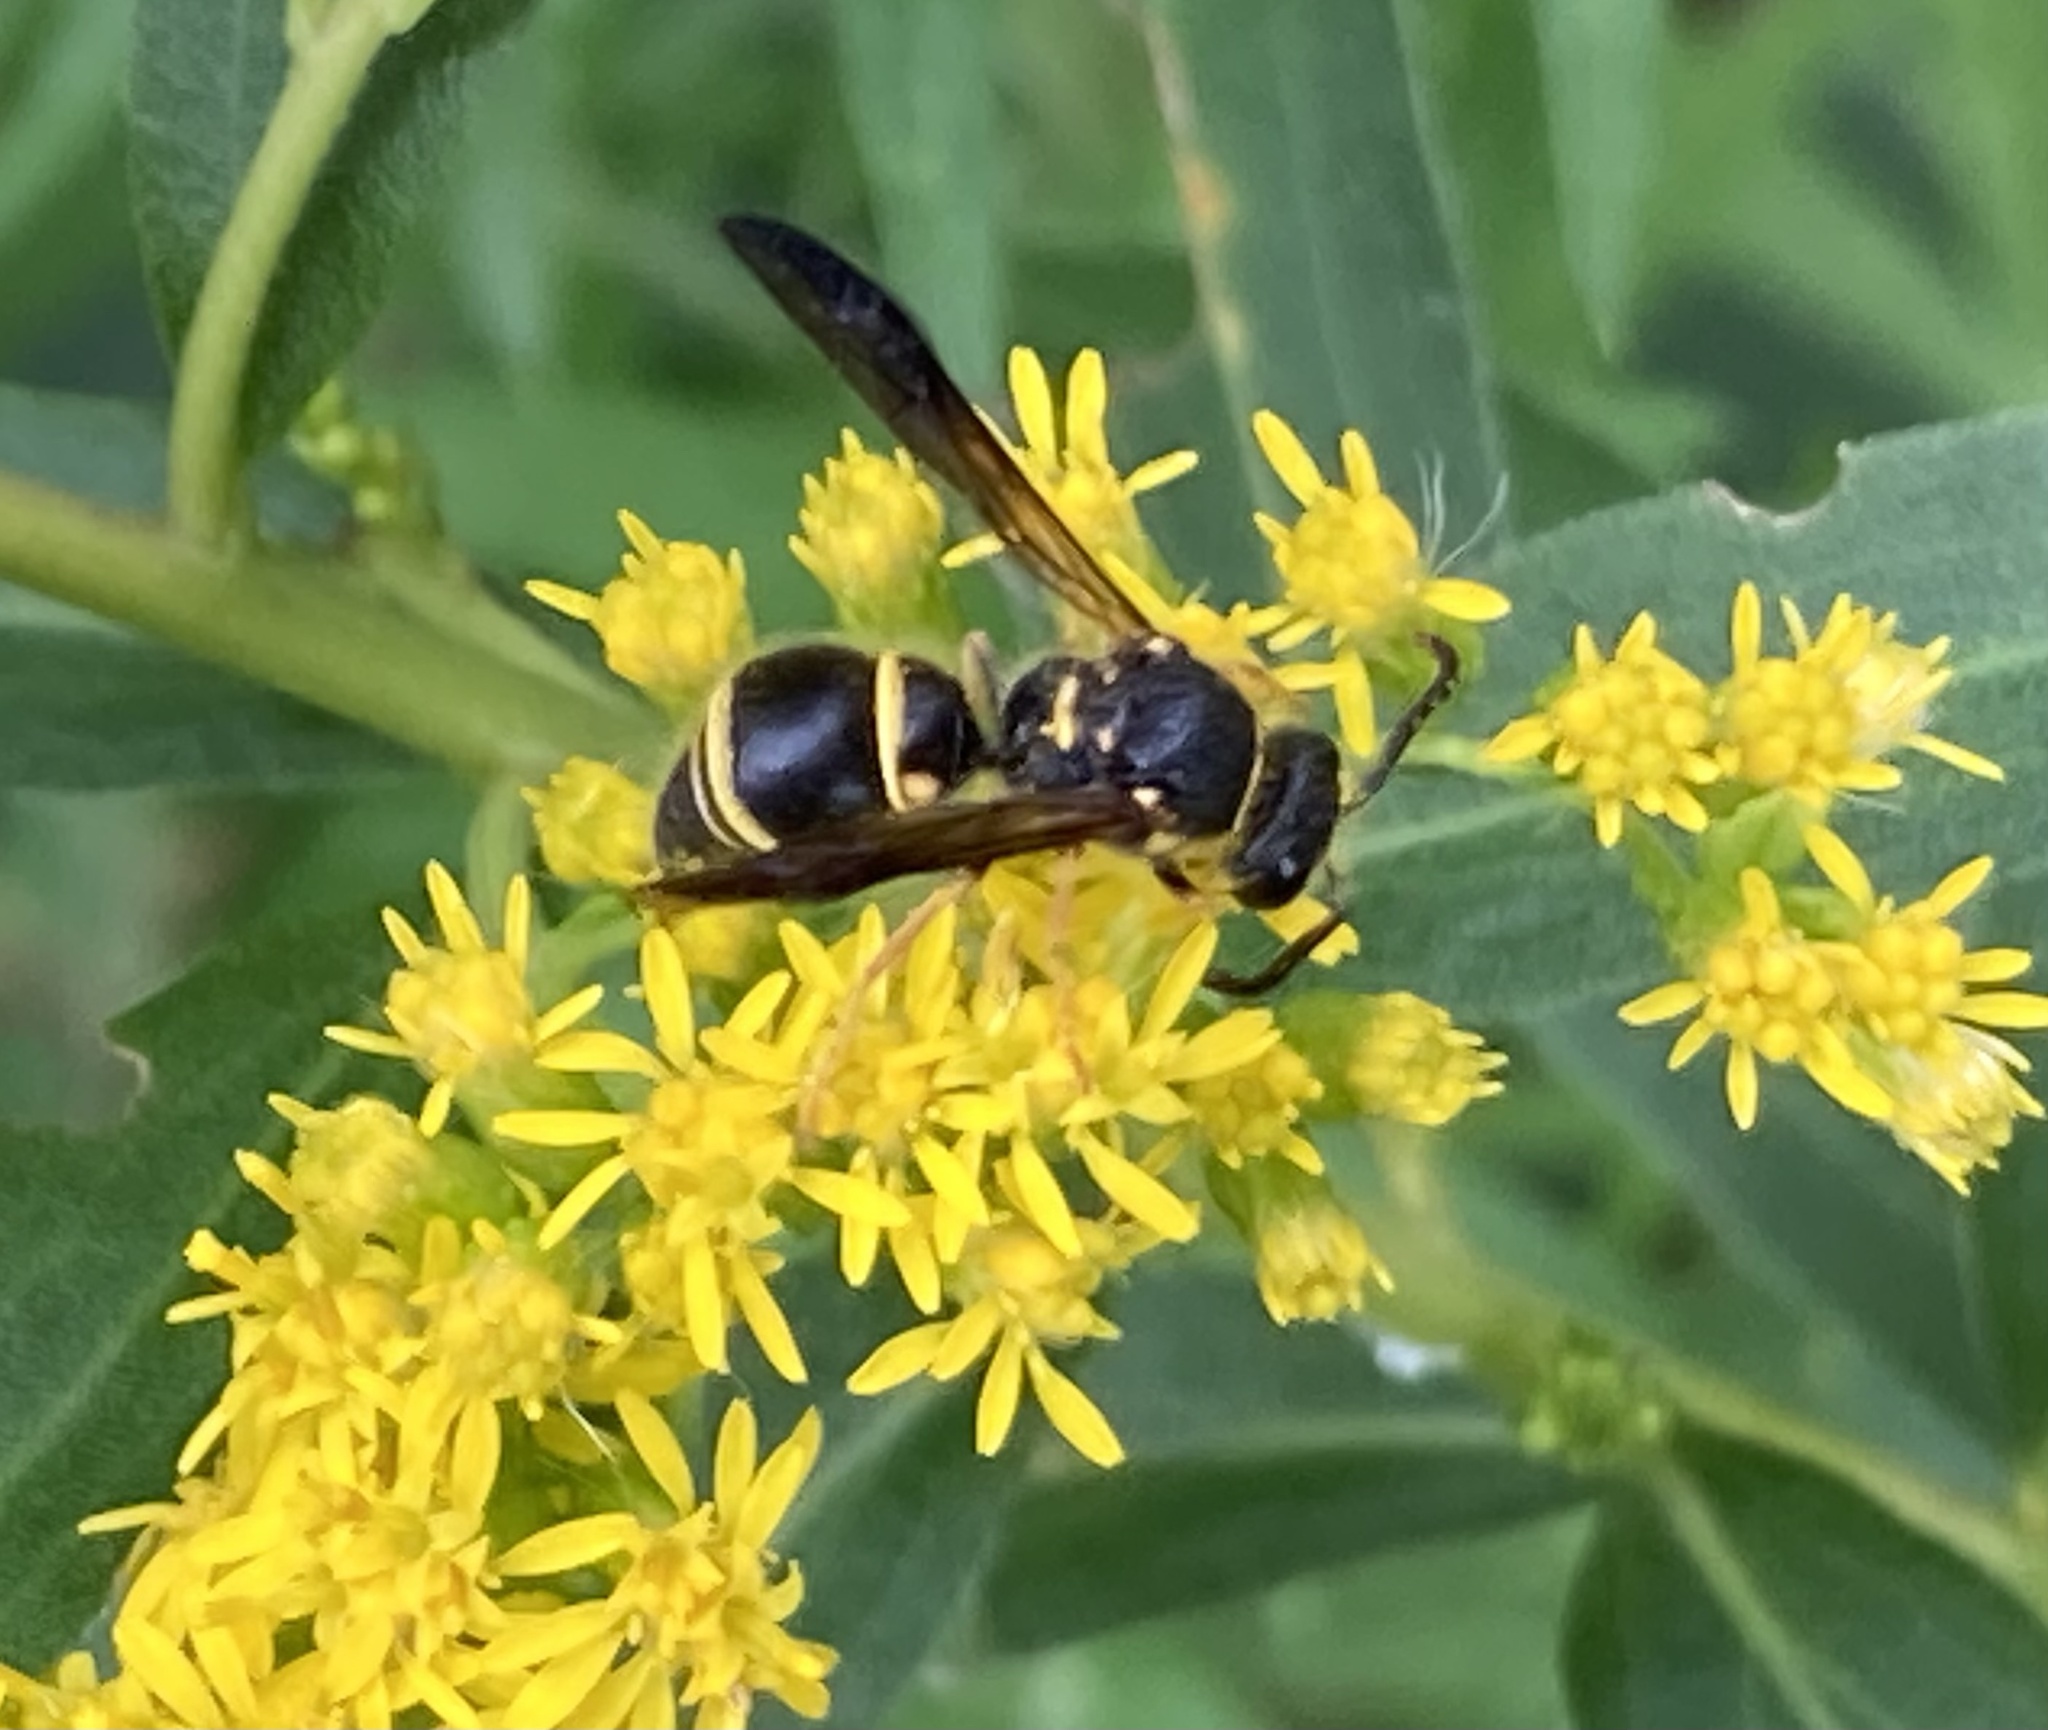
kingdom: Animalia
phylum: Arthropoda
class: Insecta
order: Hymenoptera
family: Vespidae
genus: Ancistrocerus
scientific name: Ancistrocerus campestris
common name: Smiling mason wasp
